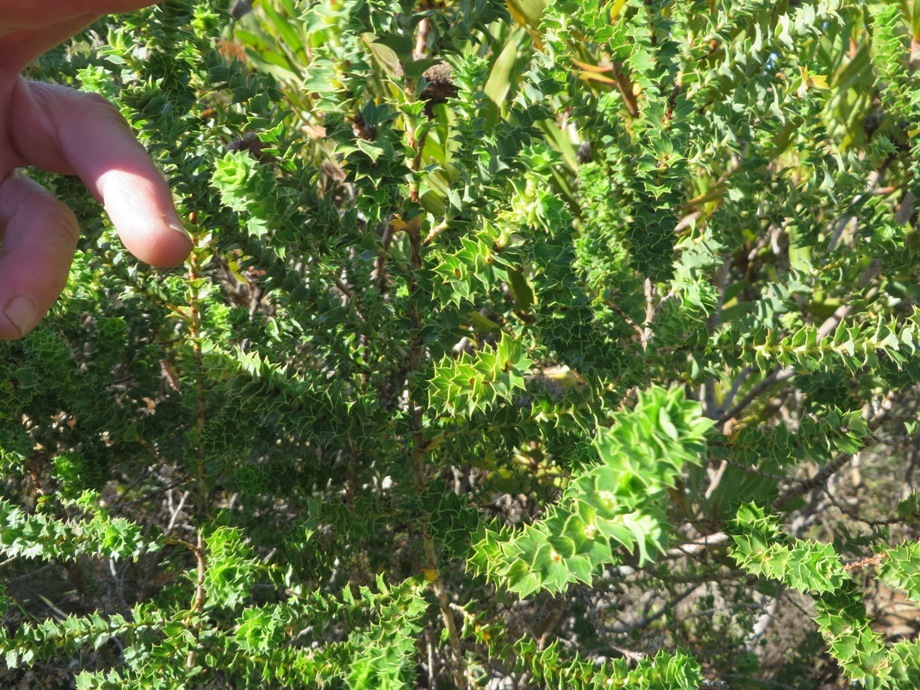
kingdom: Plantae
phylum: Tracheophyta
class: Magnoliopsida
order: Rosales
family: Rosaceae
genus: Cliffortia
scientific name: Cliffortia schlechteri
